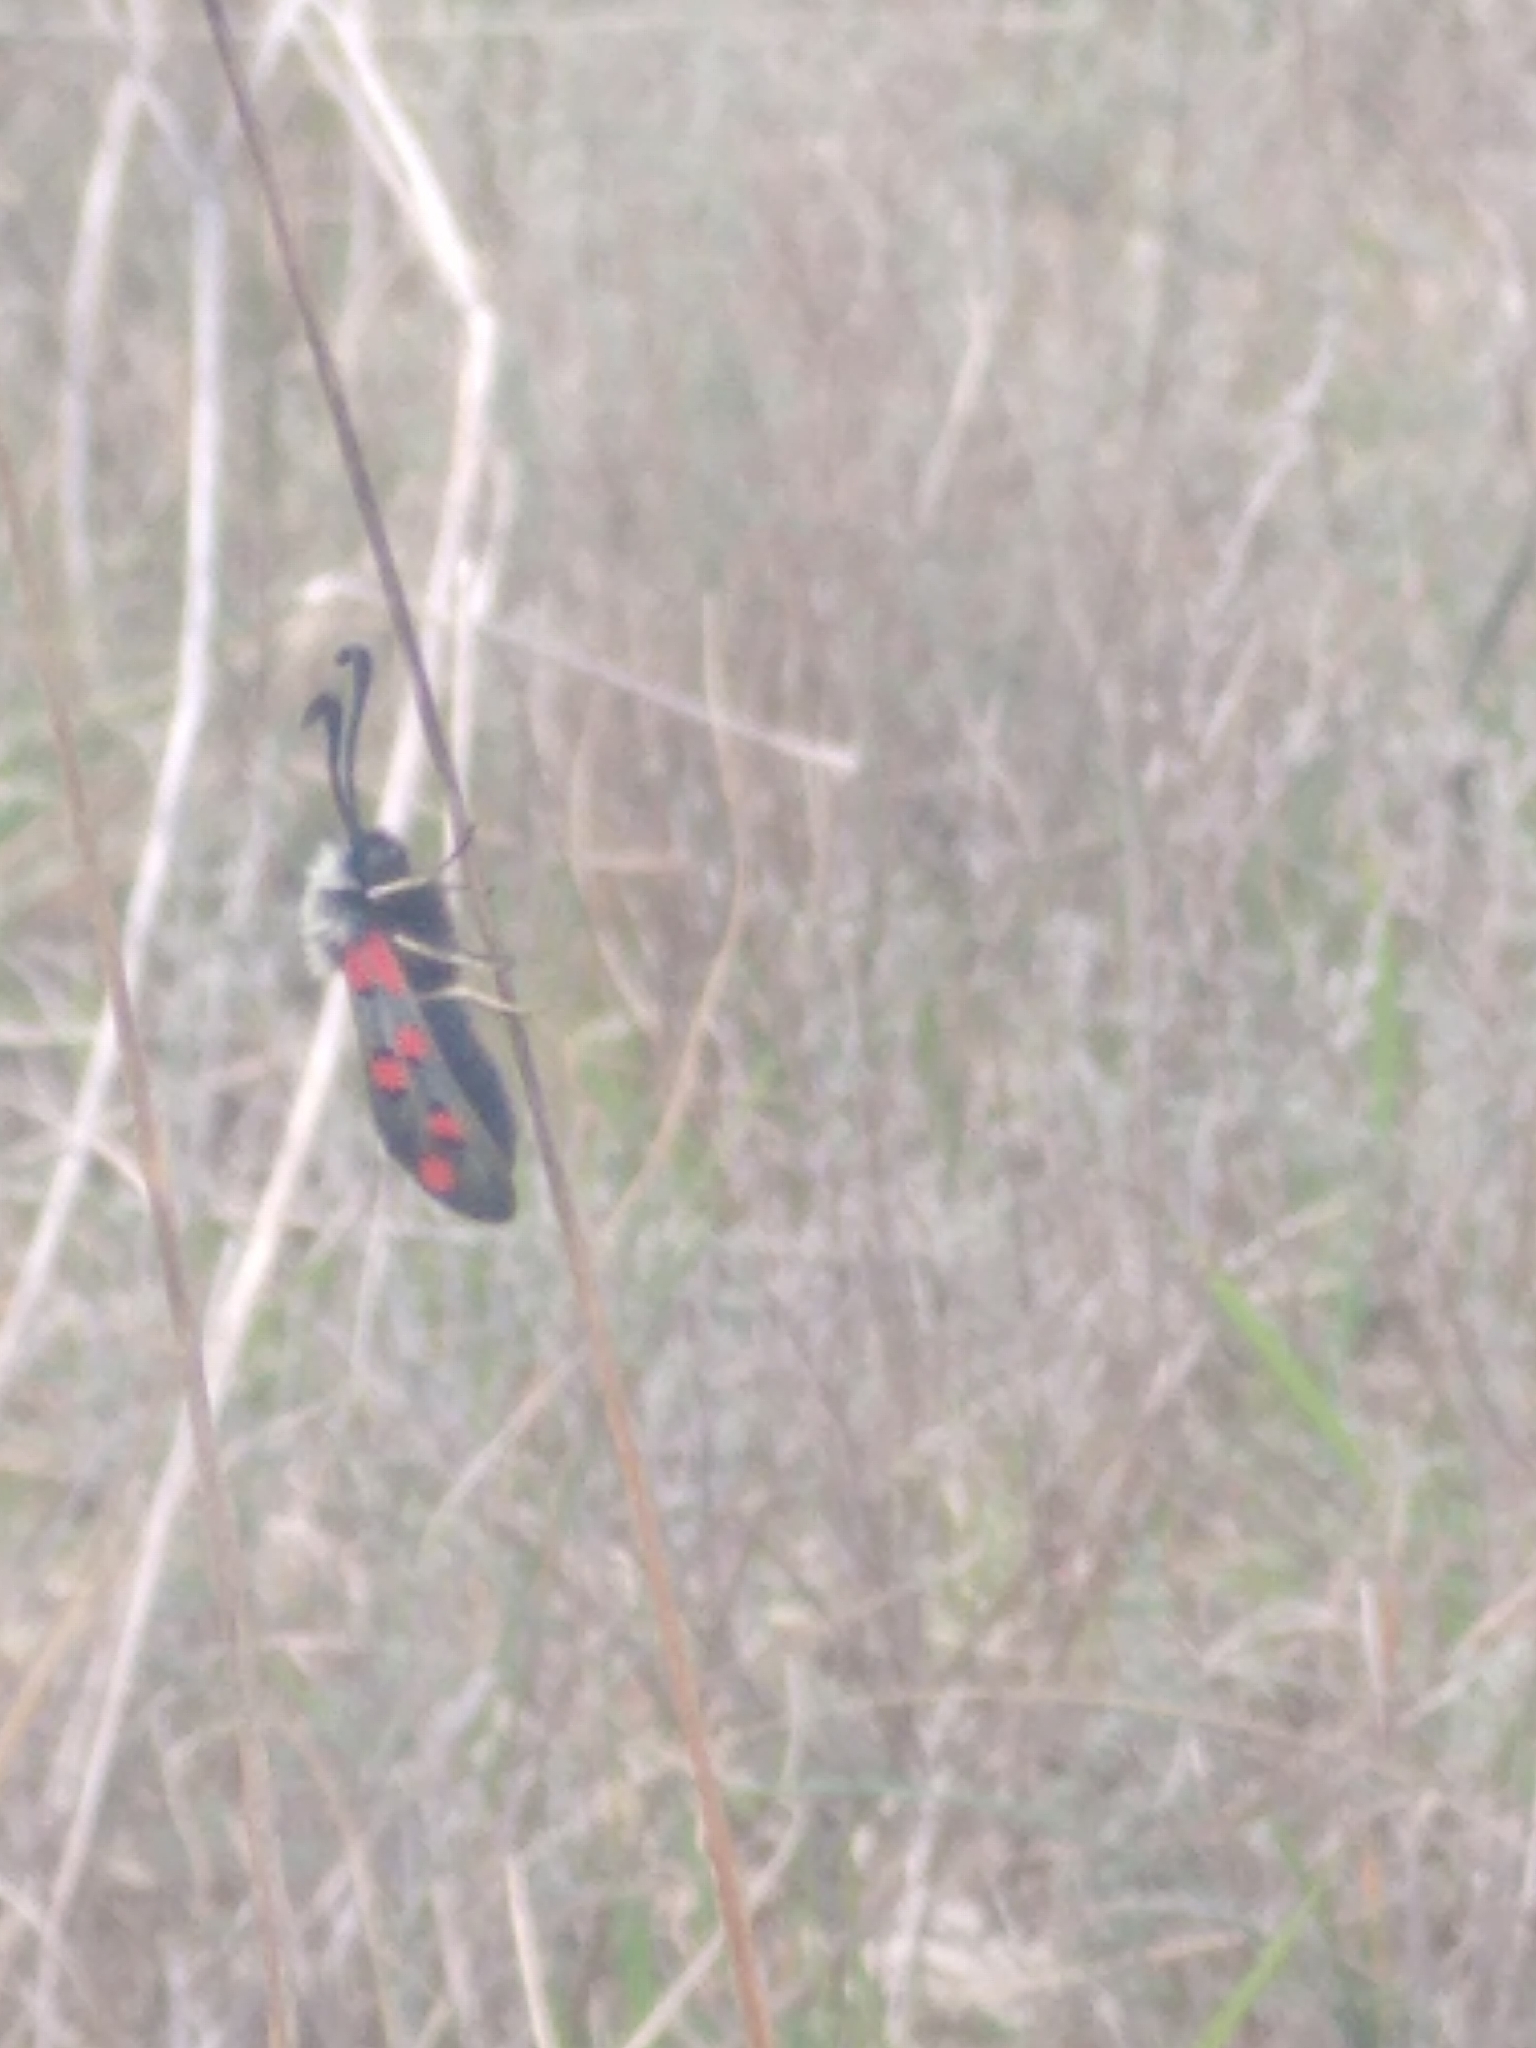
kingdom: Animalia
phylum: Arthropoda
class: Insecta
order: Lepidoptera
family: Zygaenidae
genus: Zygaena
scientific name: Zygaena rhadamanthus
